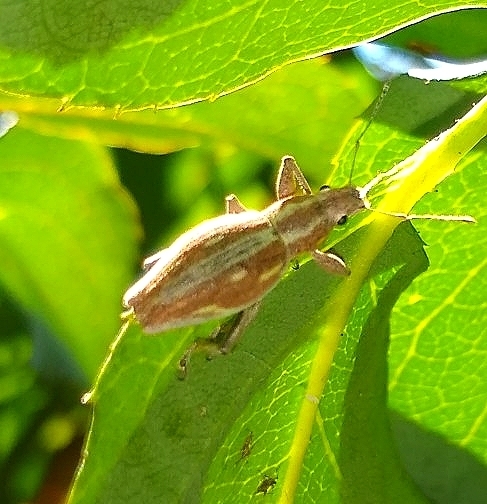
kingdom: Animalia
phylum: Arthropoda
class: Insecta
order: Coleoptera
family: Curculionidae
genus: Naupactus
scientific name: Naupactus xanthographus
